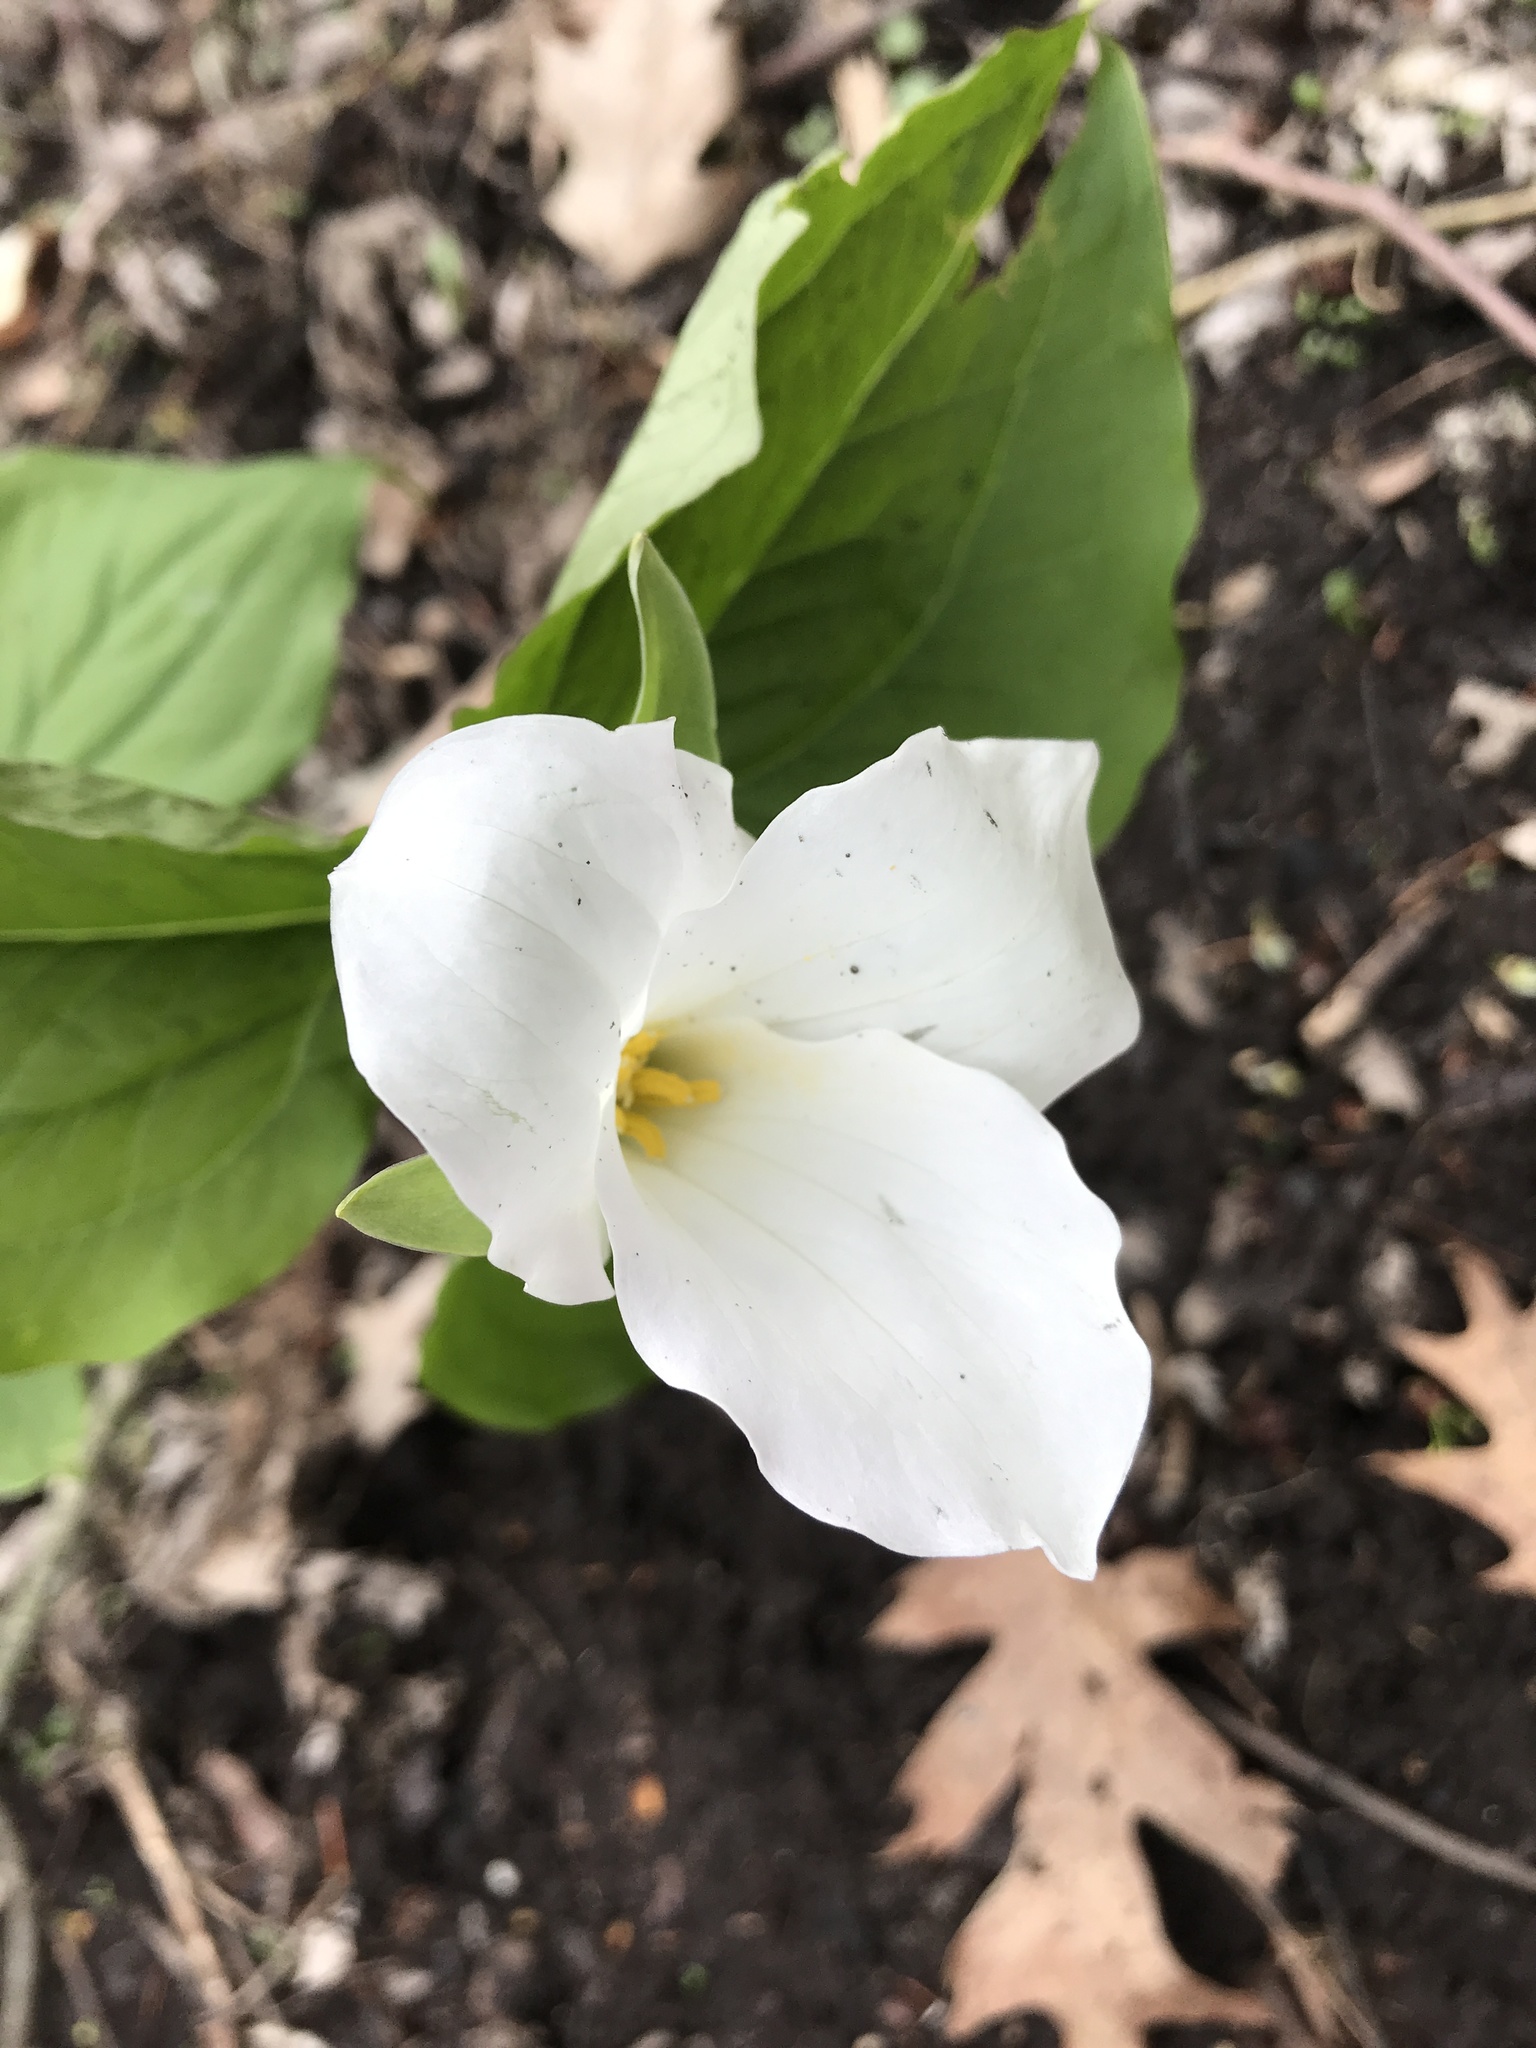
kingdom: Plantae
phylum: Tracheophyta
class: Liliopsida
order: Liliales
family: Melanthiaceae
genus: Trillium
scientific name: Trillium grandiflorum
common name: Great white trillium
